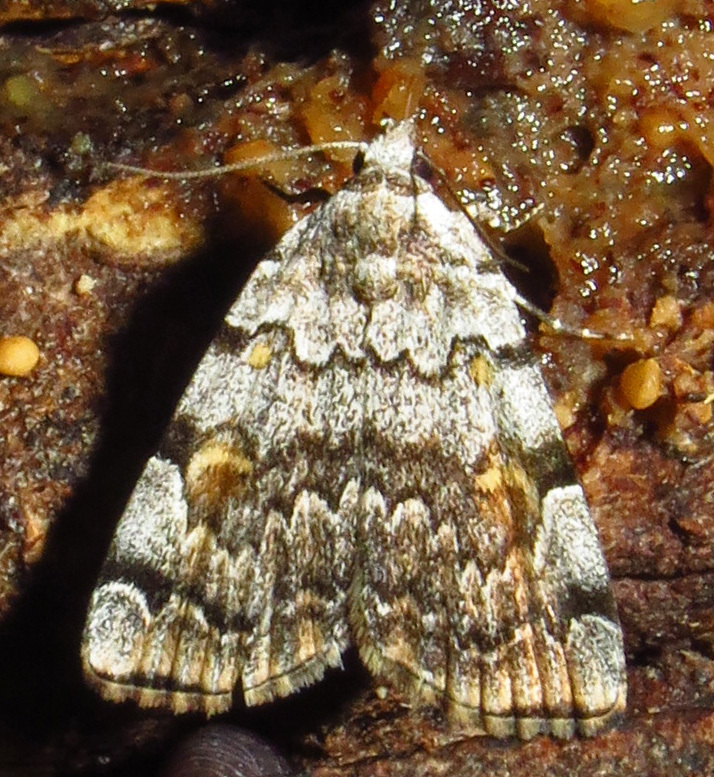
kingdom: Animalia
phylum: Arthropoda
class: Insecta
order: Lepidoptera
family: Erebidae
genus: Idia
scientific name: Idia americalis
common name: American idia moth
